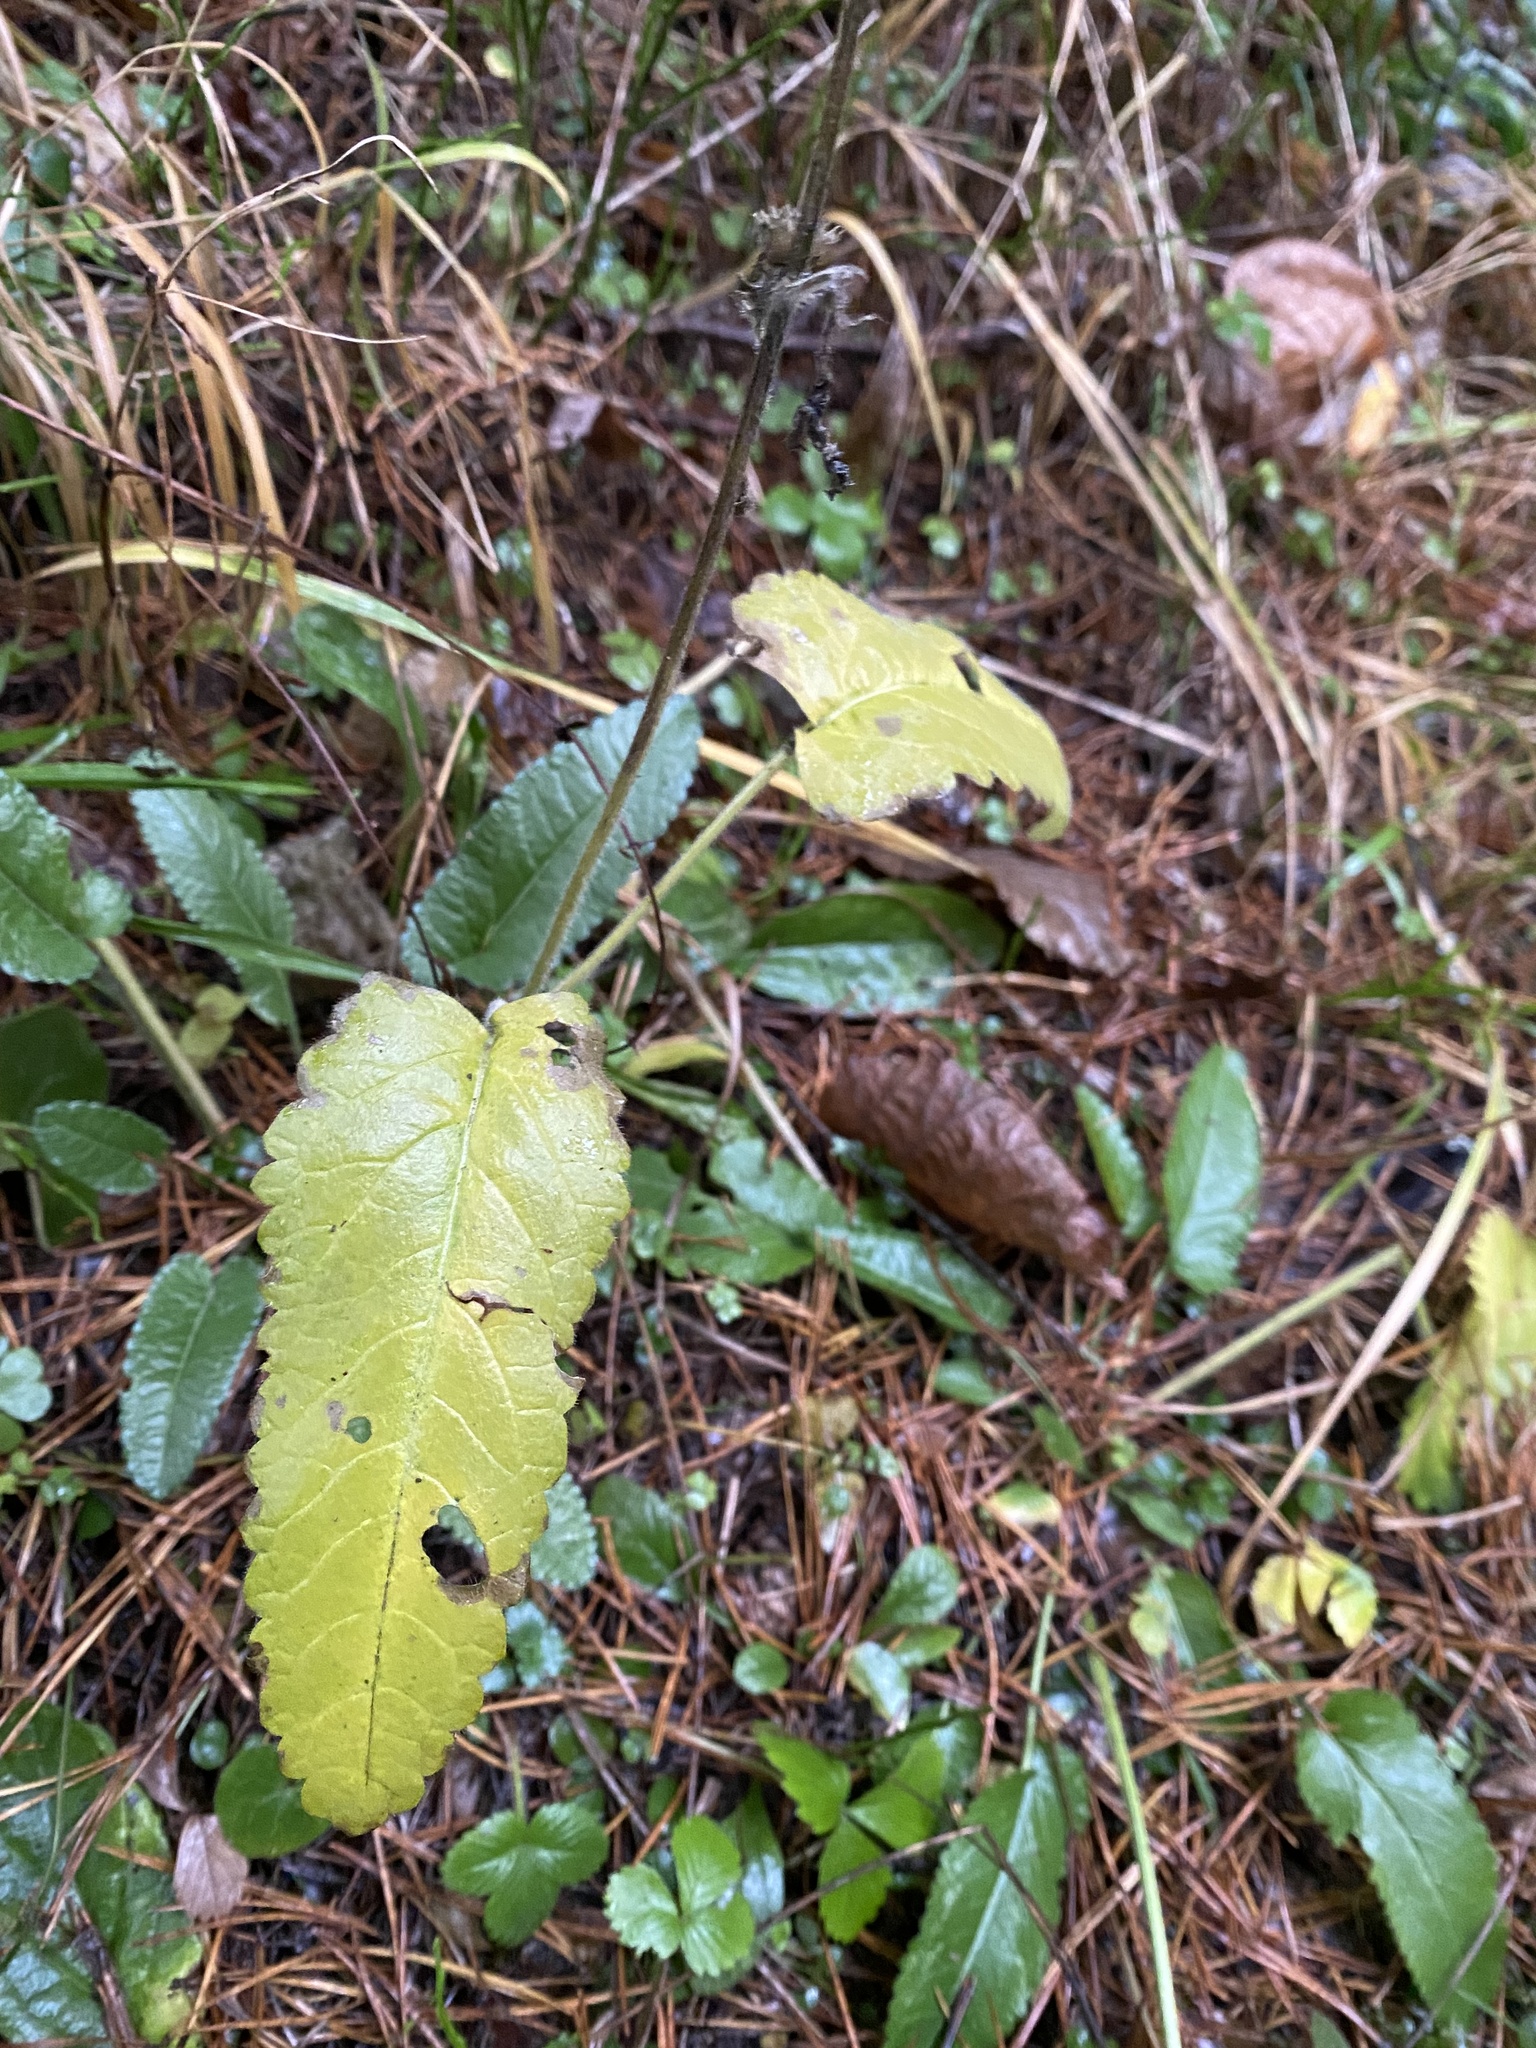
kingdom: Plantae
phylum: Tracheophyta
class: Magnoliopsida
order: Lamiales
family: Lamiaceae
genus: Betonica
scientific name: Betonica officinalis
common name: Bishop's-wort
